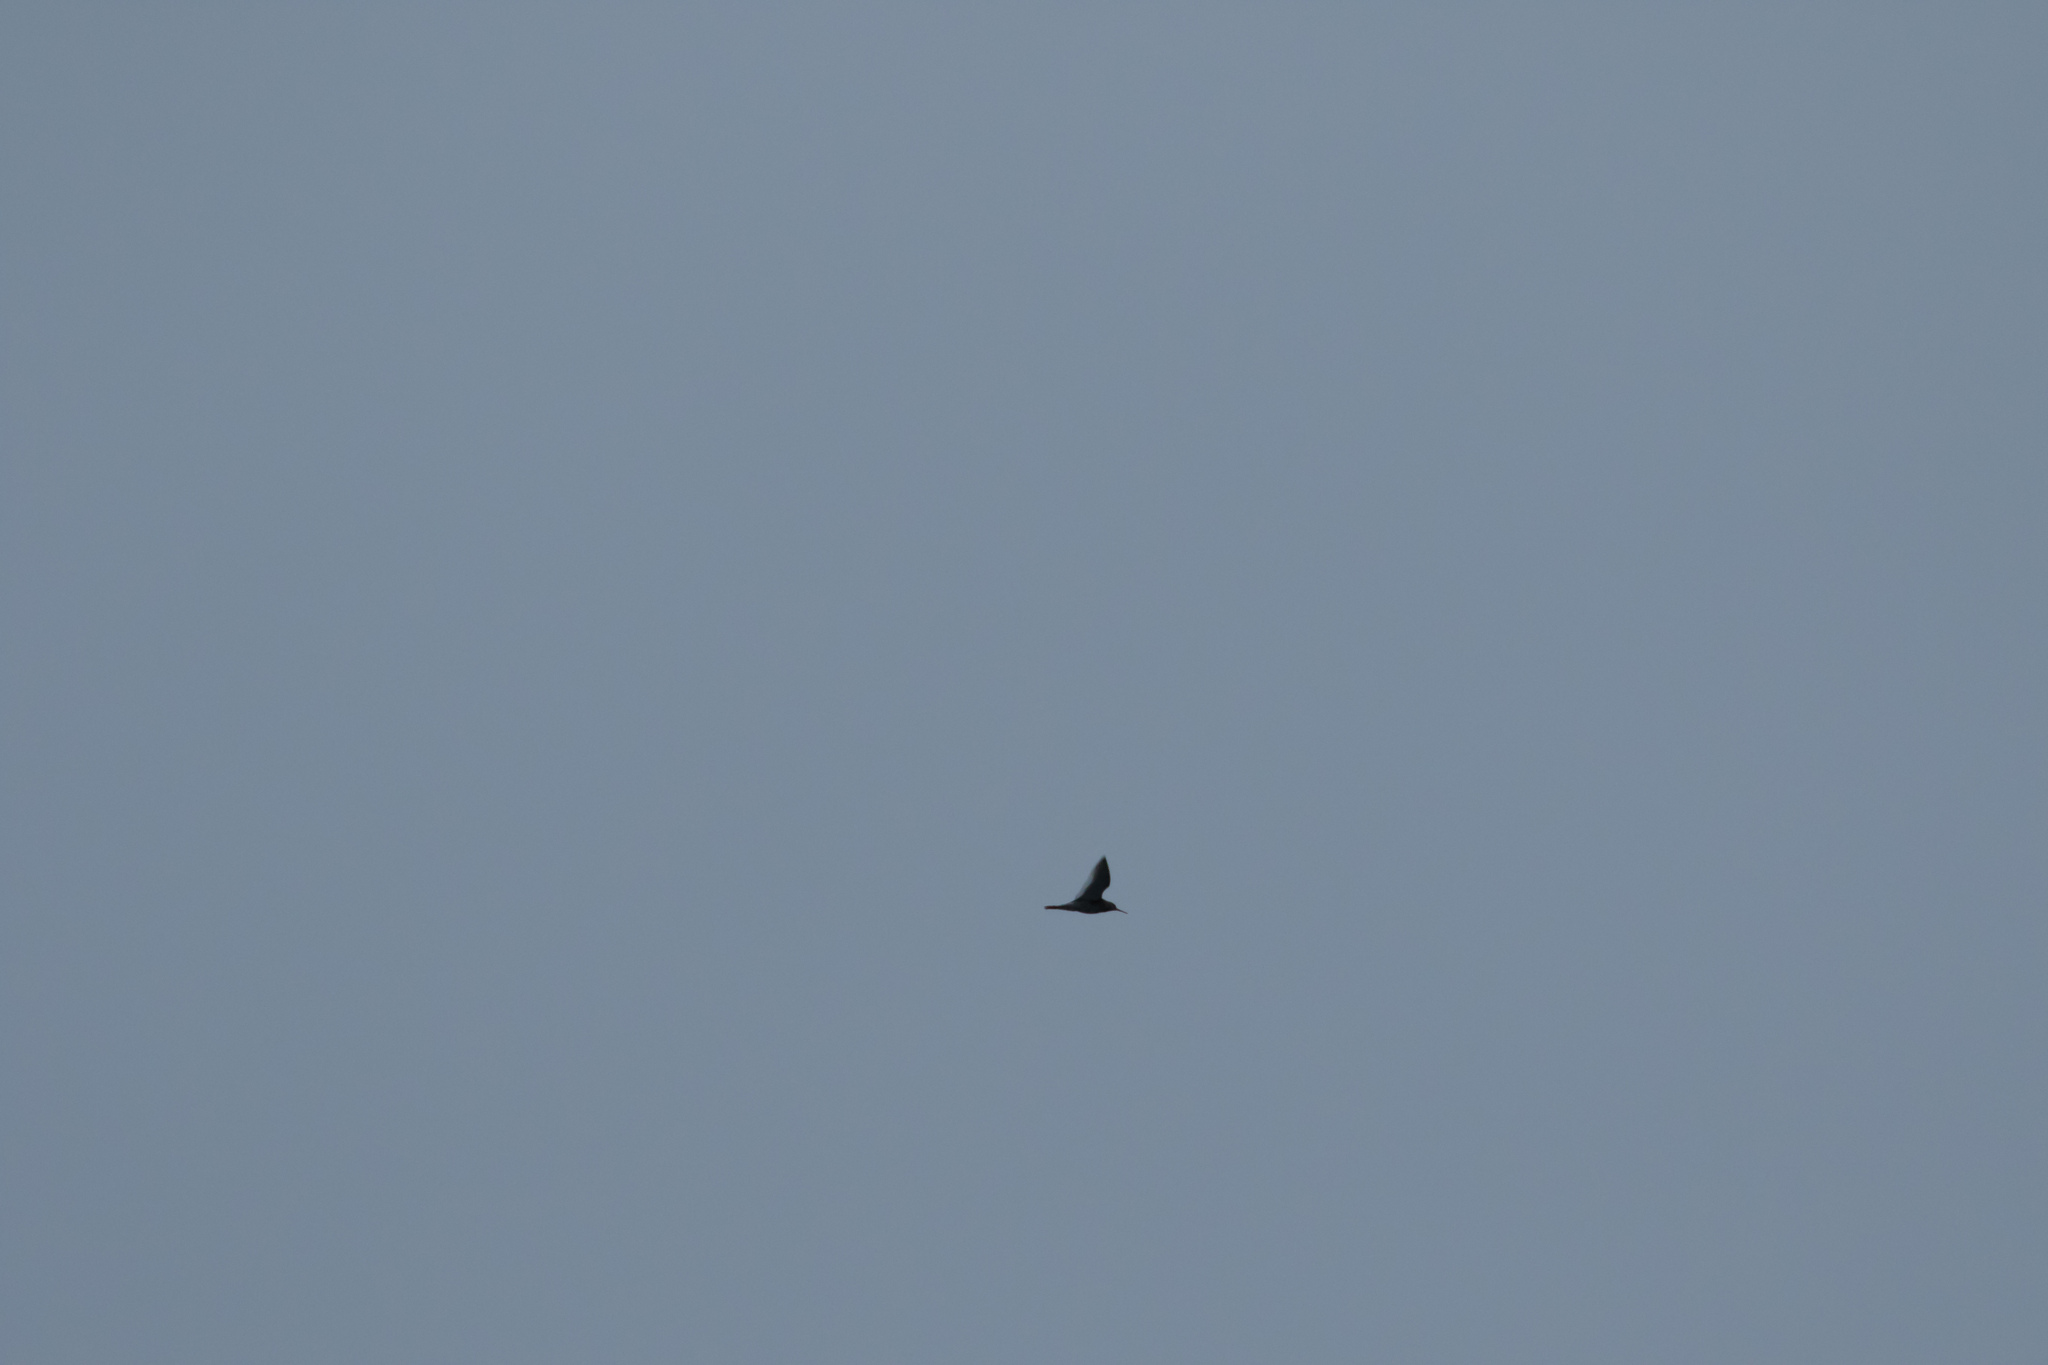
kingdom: Animalia
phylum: Chordata
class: Aves
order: Charadriiformes
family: Scolopacidae
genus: Tringa
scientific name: Tringa totanus
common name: Common redshank
